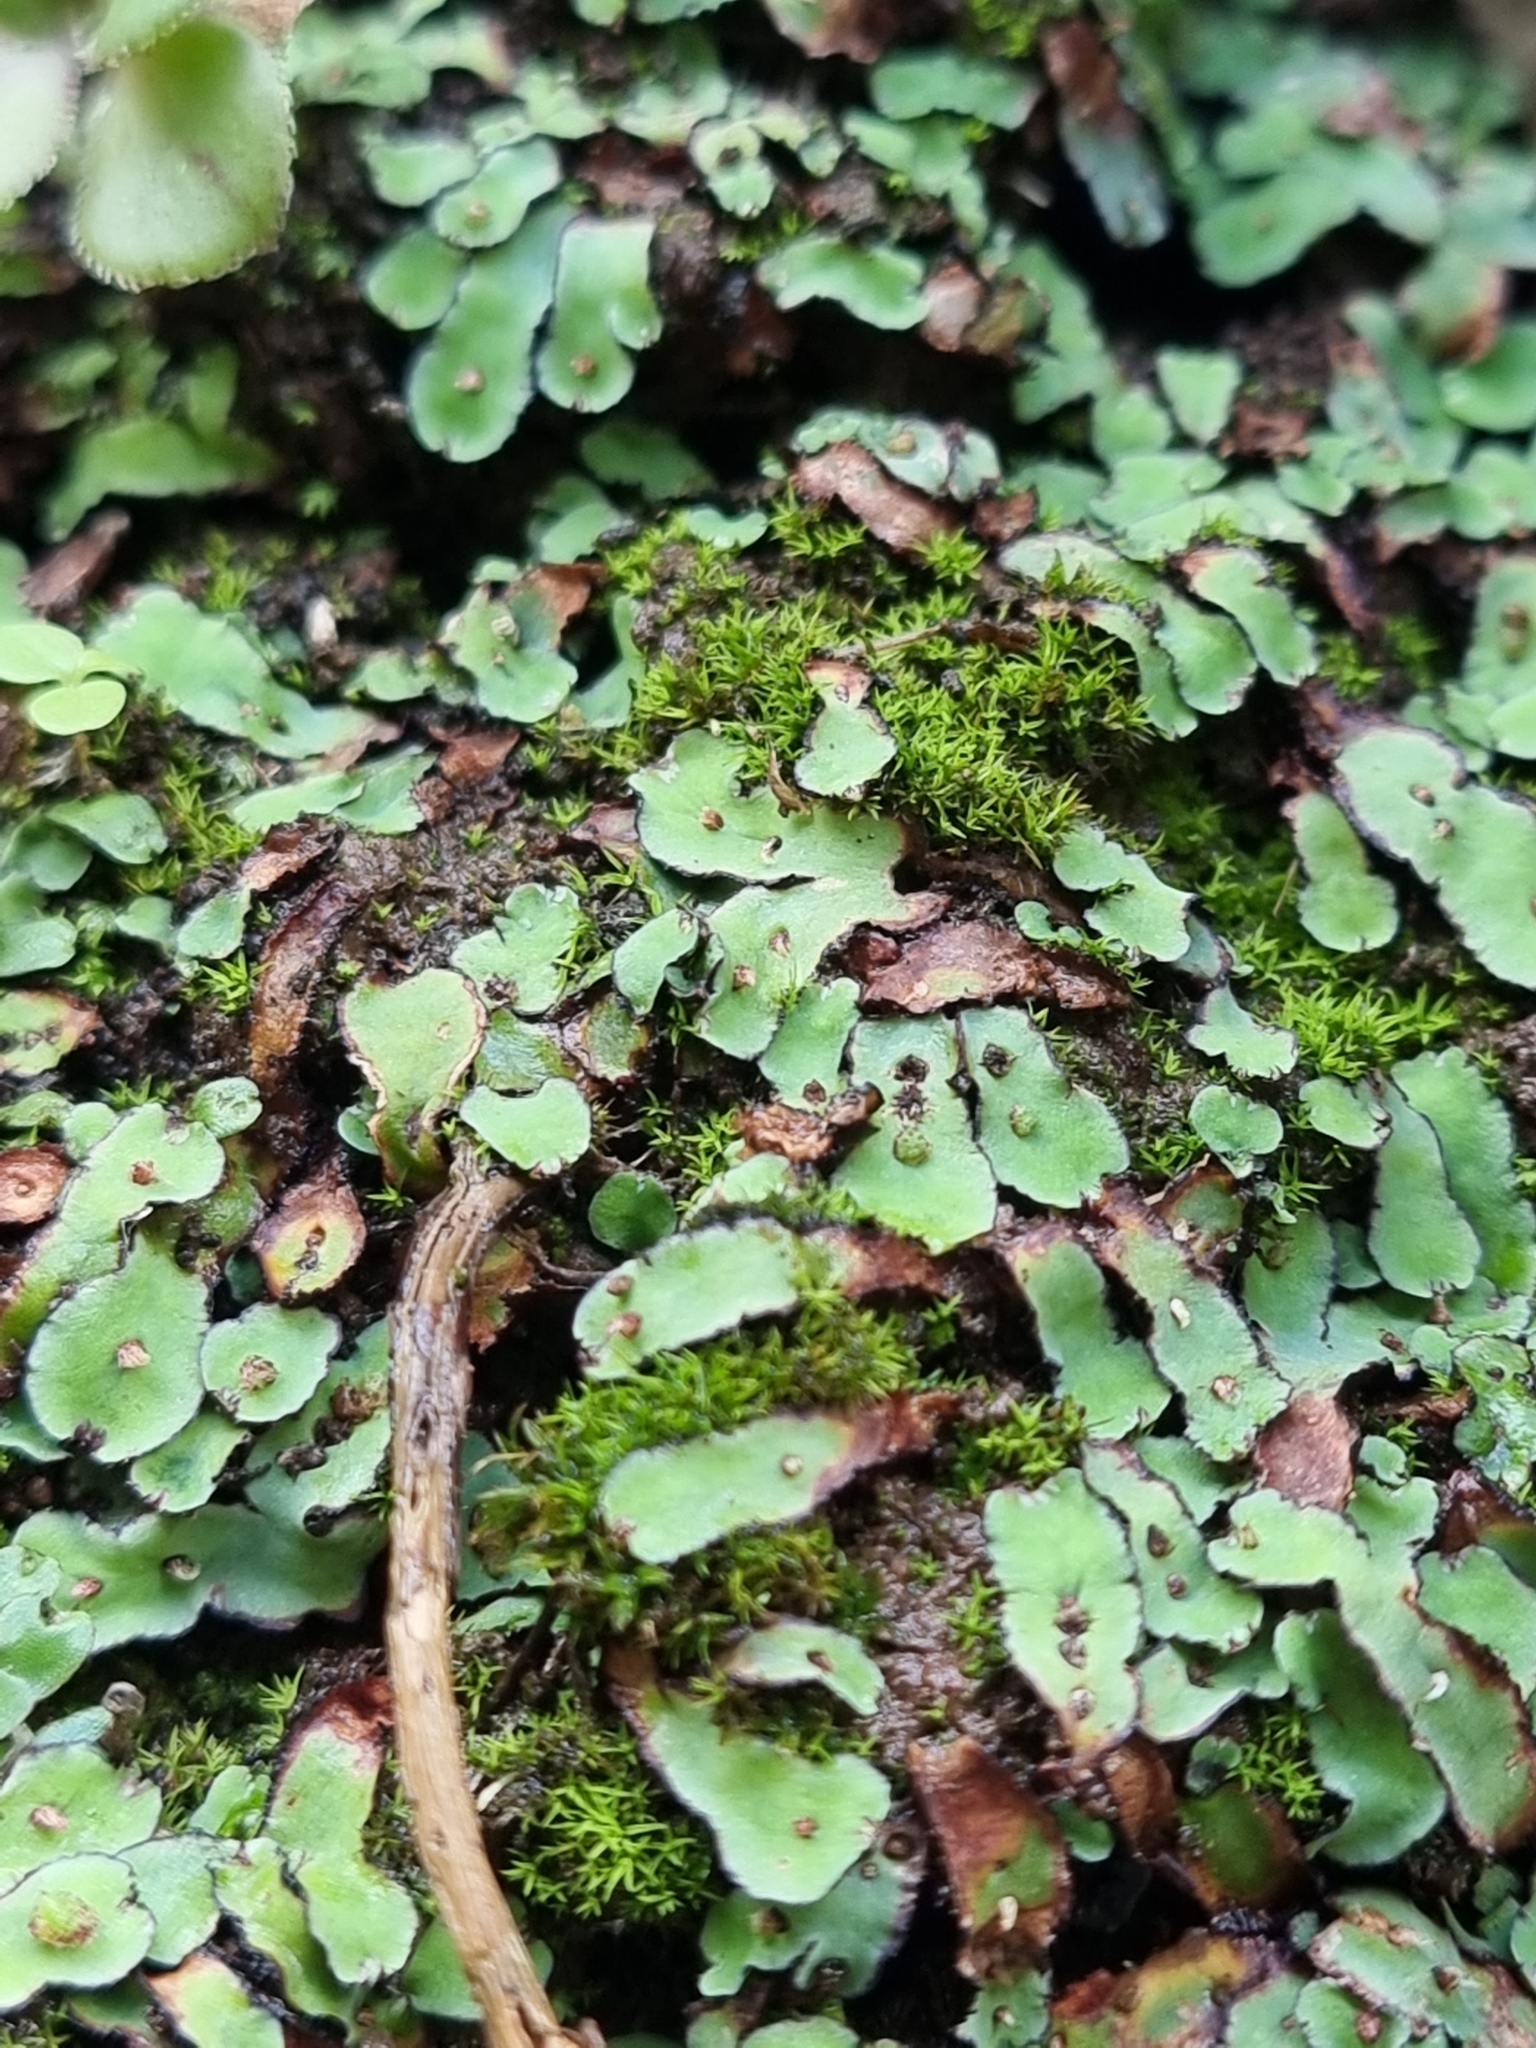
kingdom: Plantae
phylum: Marchantiophyta
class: Marchantiopsida
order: Marchantiales
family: Aytoniaceae
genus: Plagiochasma
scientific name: Plagiochasma rupestre
